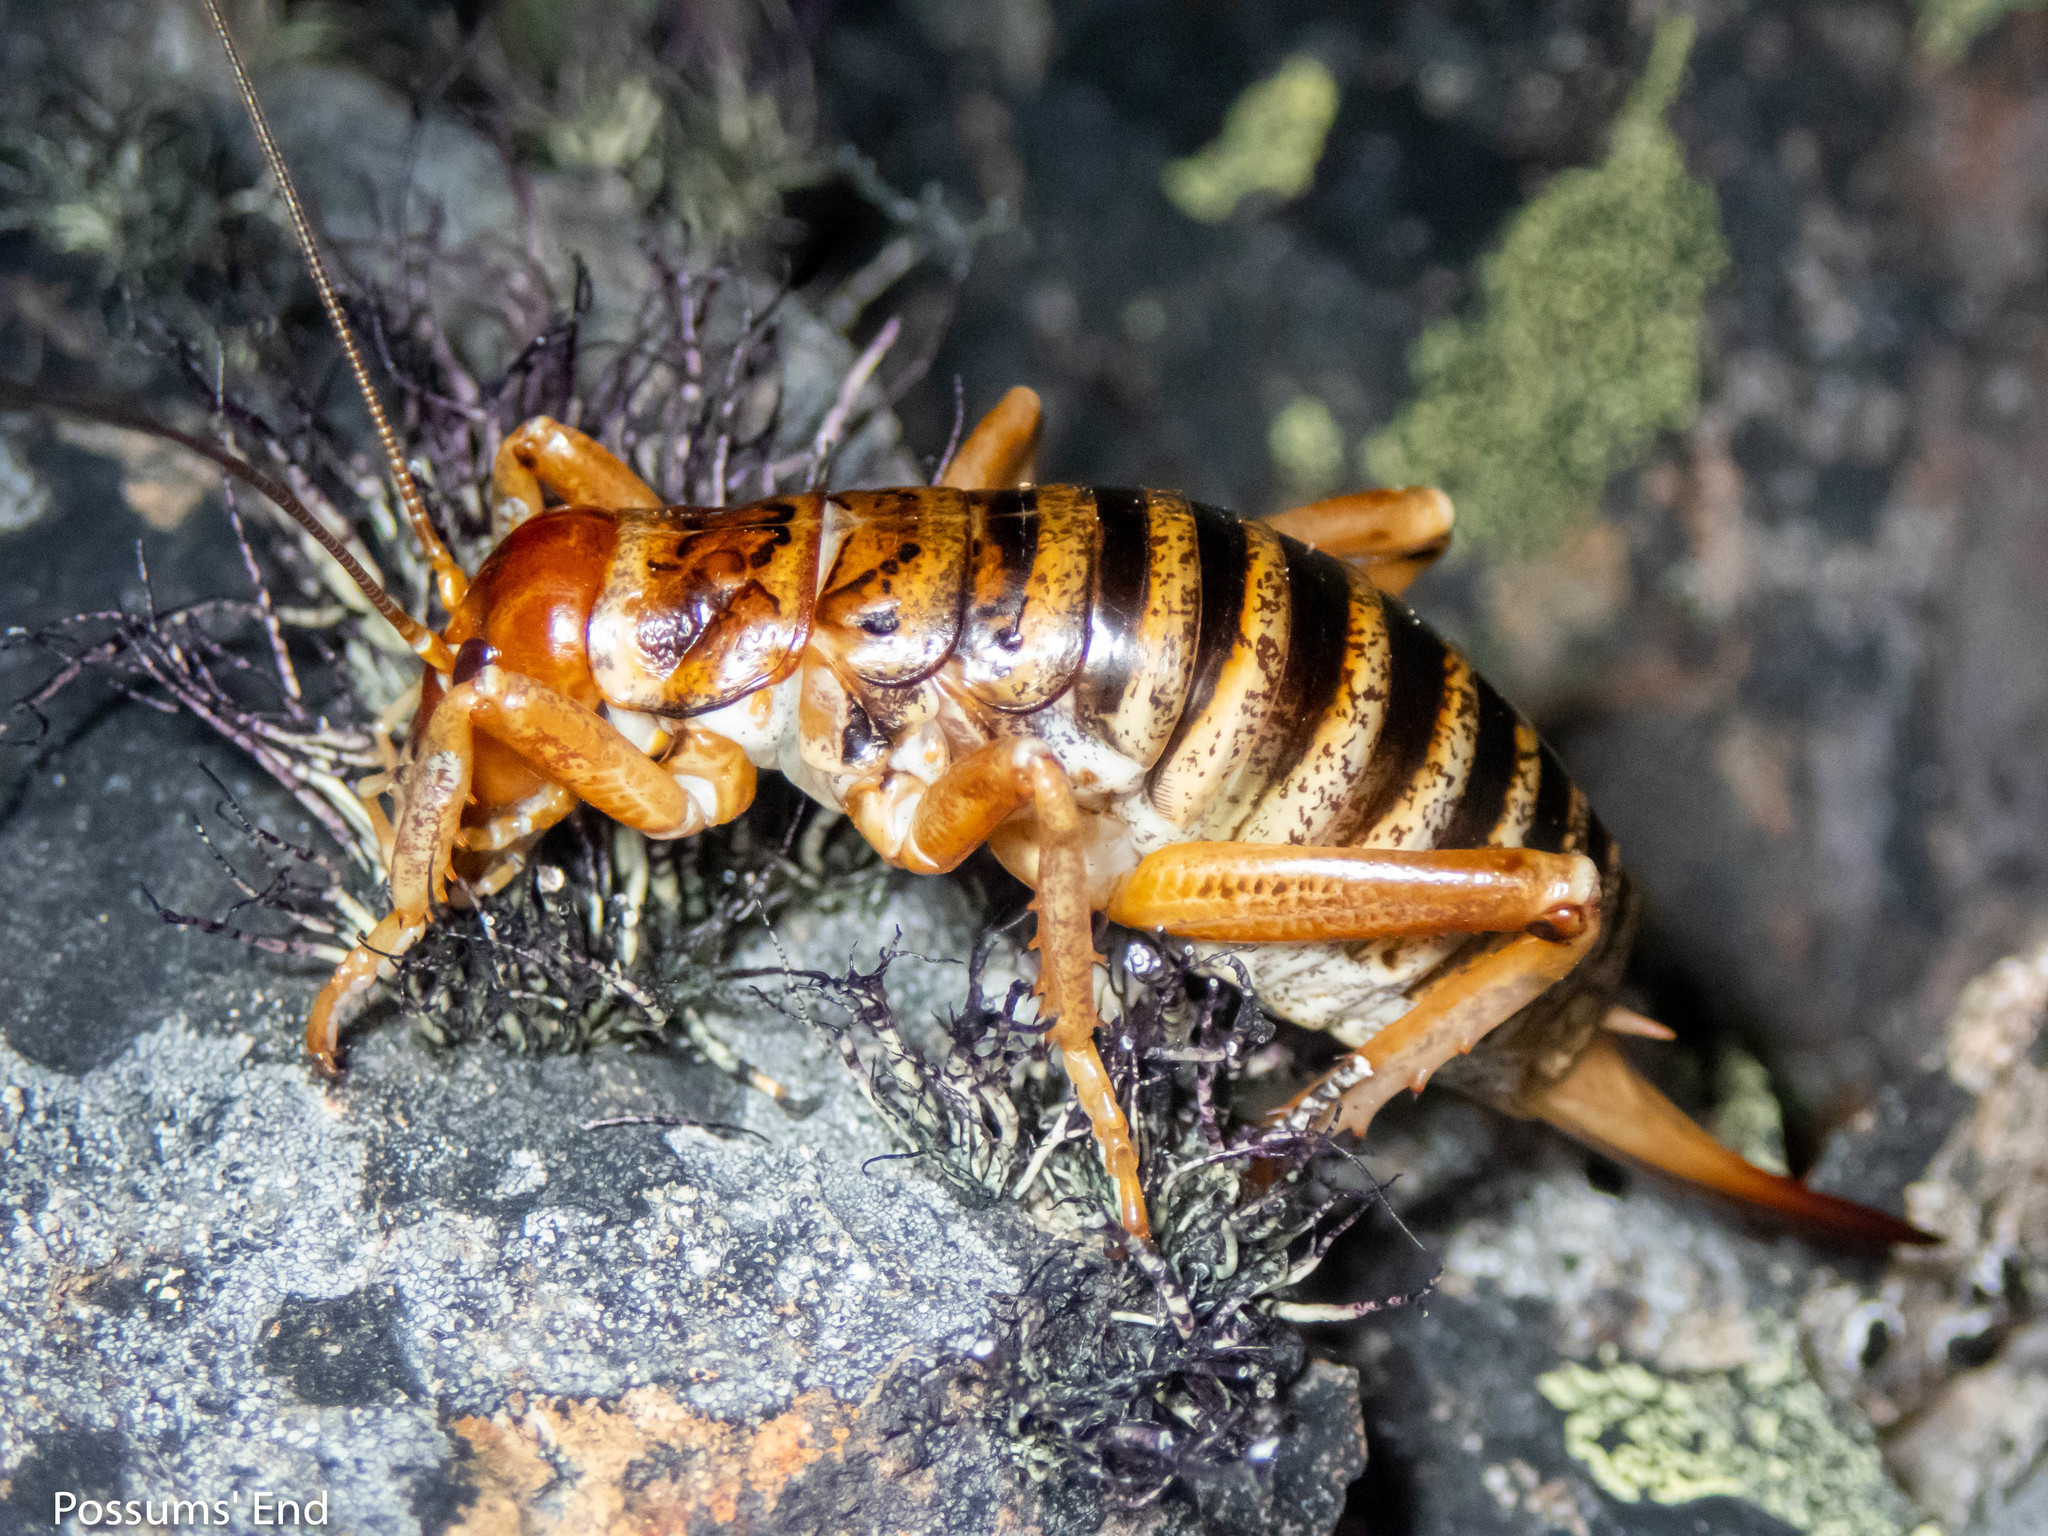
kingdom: Animalia
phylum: Arthropoda
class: Insecta
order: Orthoptera
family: Anostostomatidae
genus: Hemideina
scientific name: Hemideina maori
